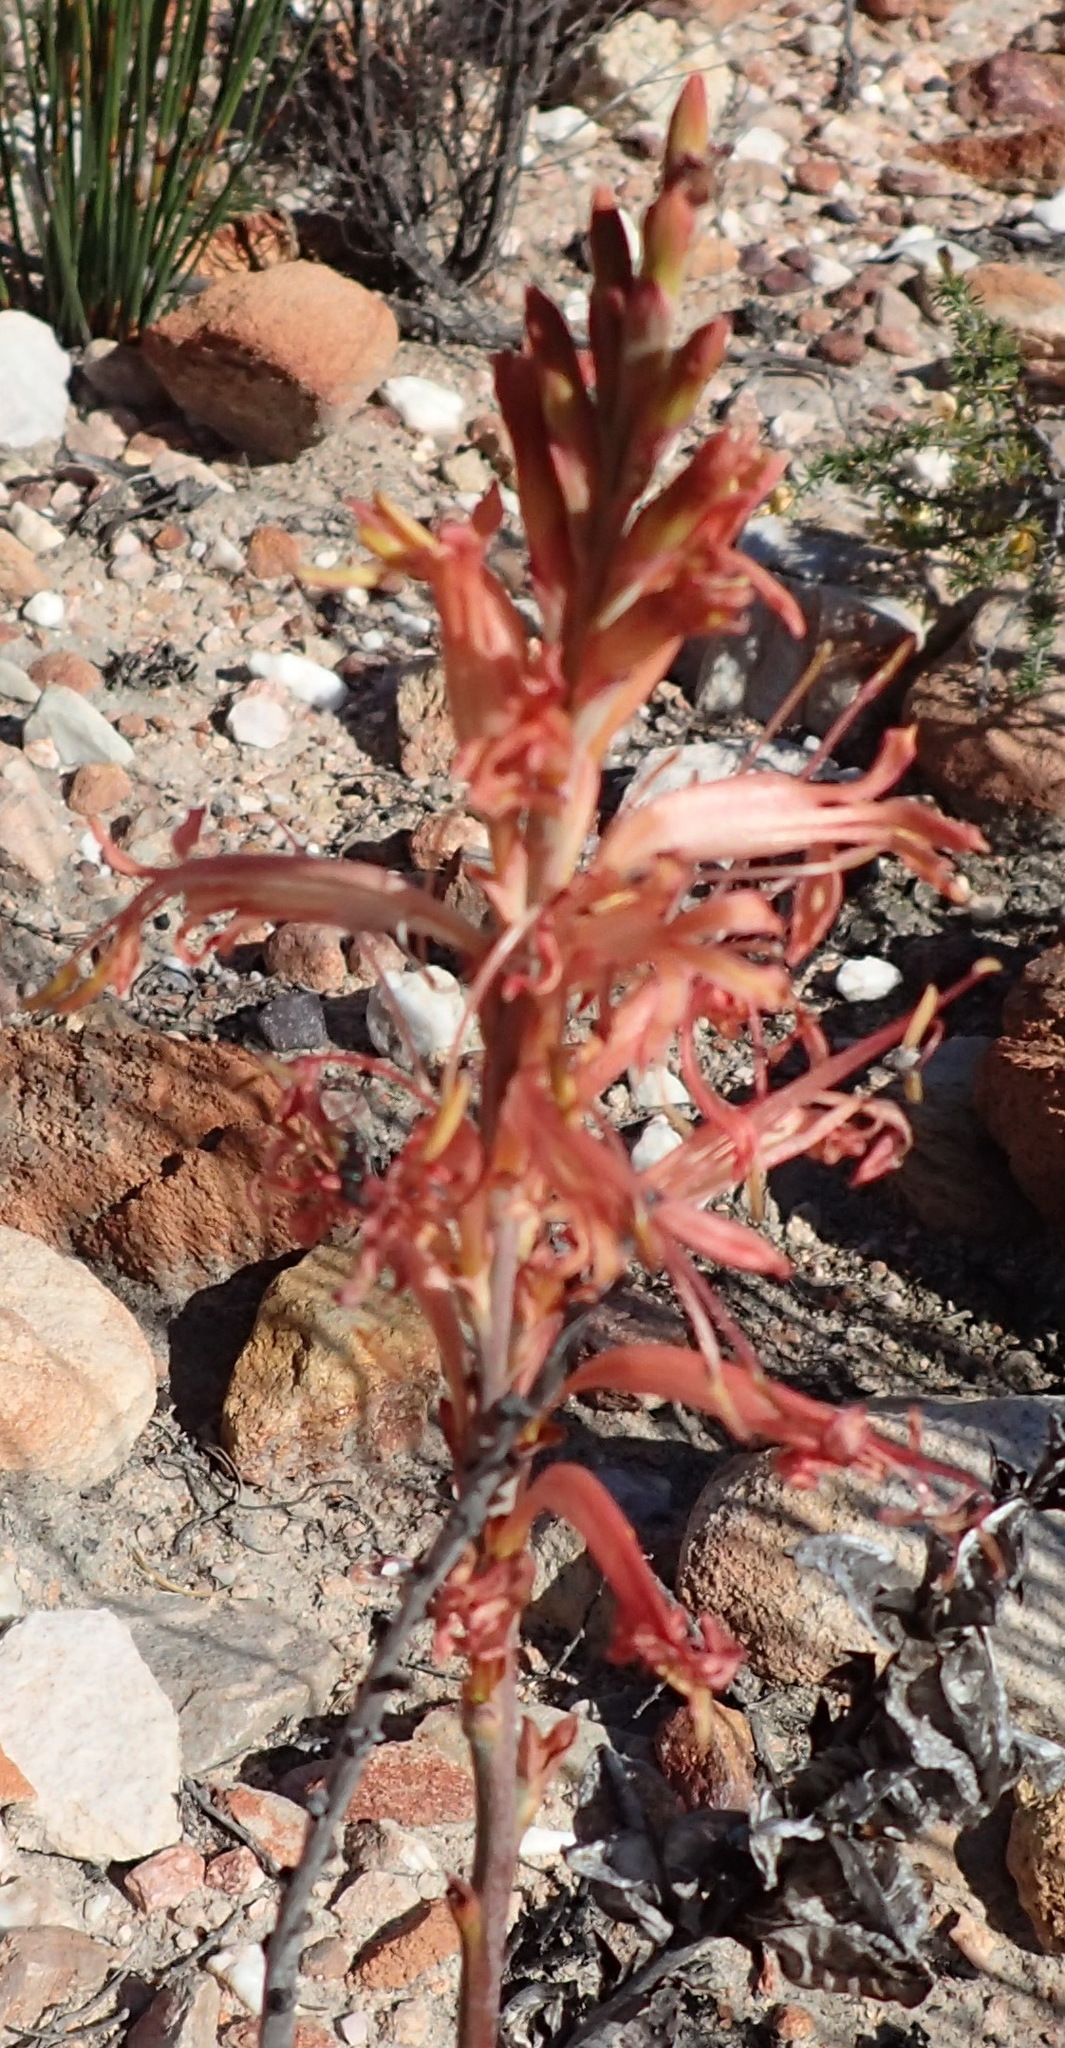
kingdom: Plantae
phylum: Tracheophyta
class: Liliopsida
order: Asparagales
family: Iridaceae
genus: Tritoniopsis
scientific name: Tritoniopsis antholyza
